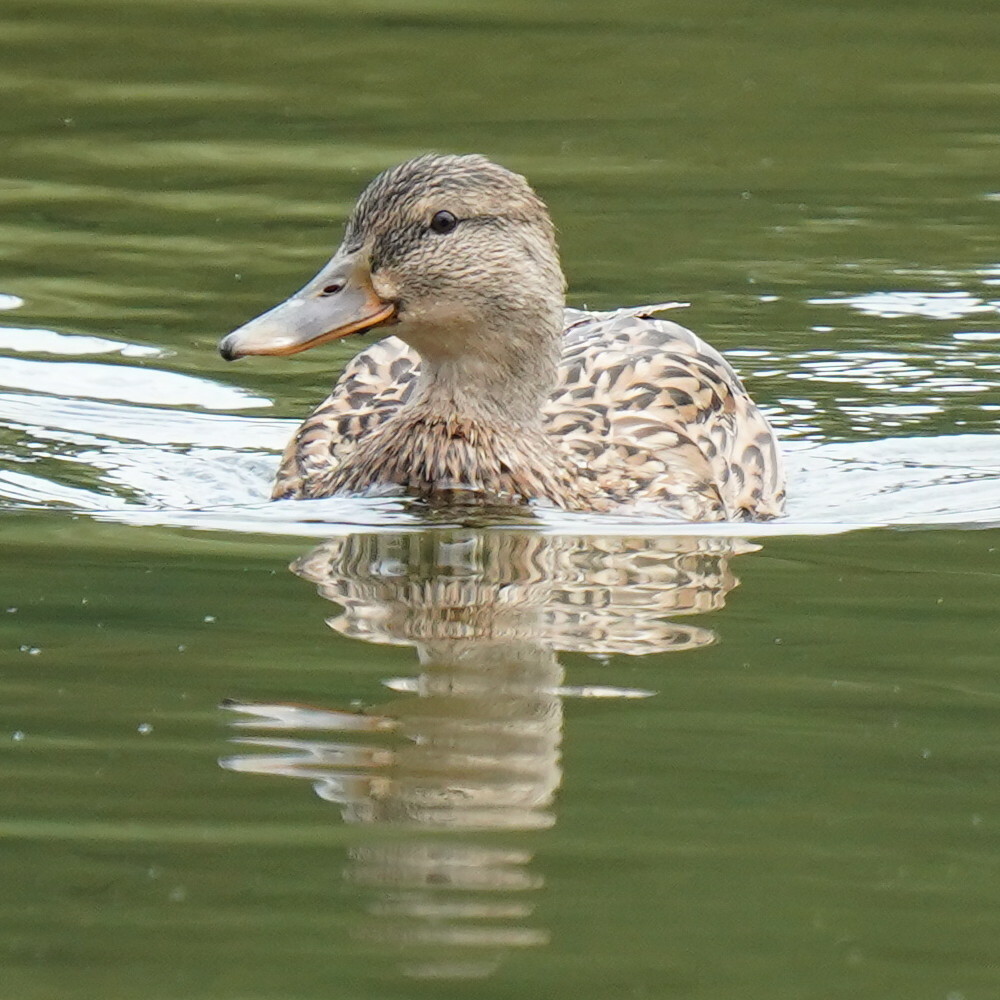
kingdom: Animalia
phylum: Chordata
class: Aves
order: Anseriformes
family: Anatidae
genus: Anas
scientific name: Anas platyrhynchos
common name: Mallard
